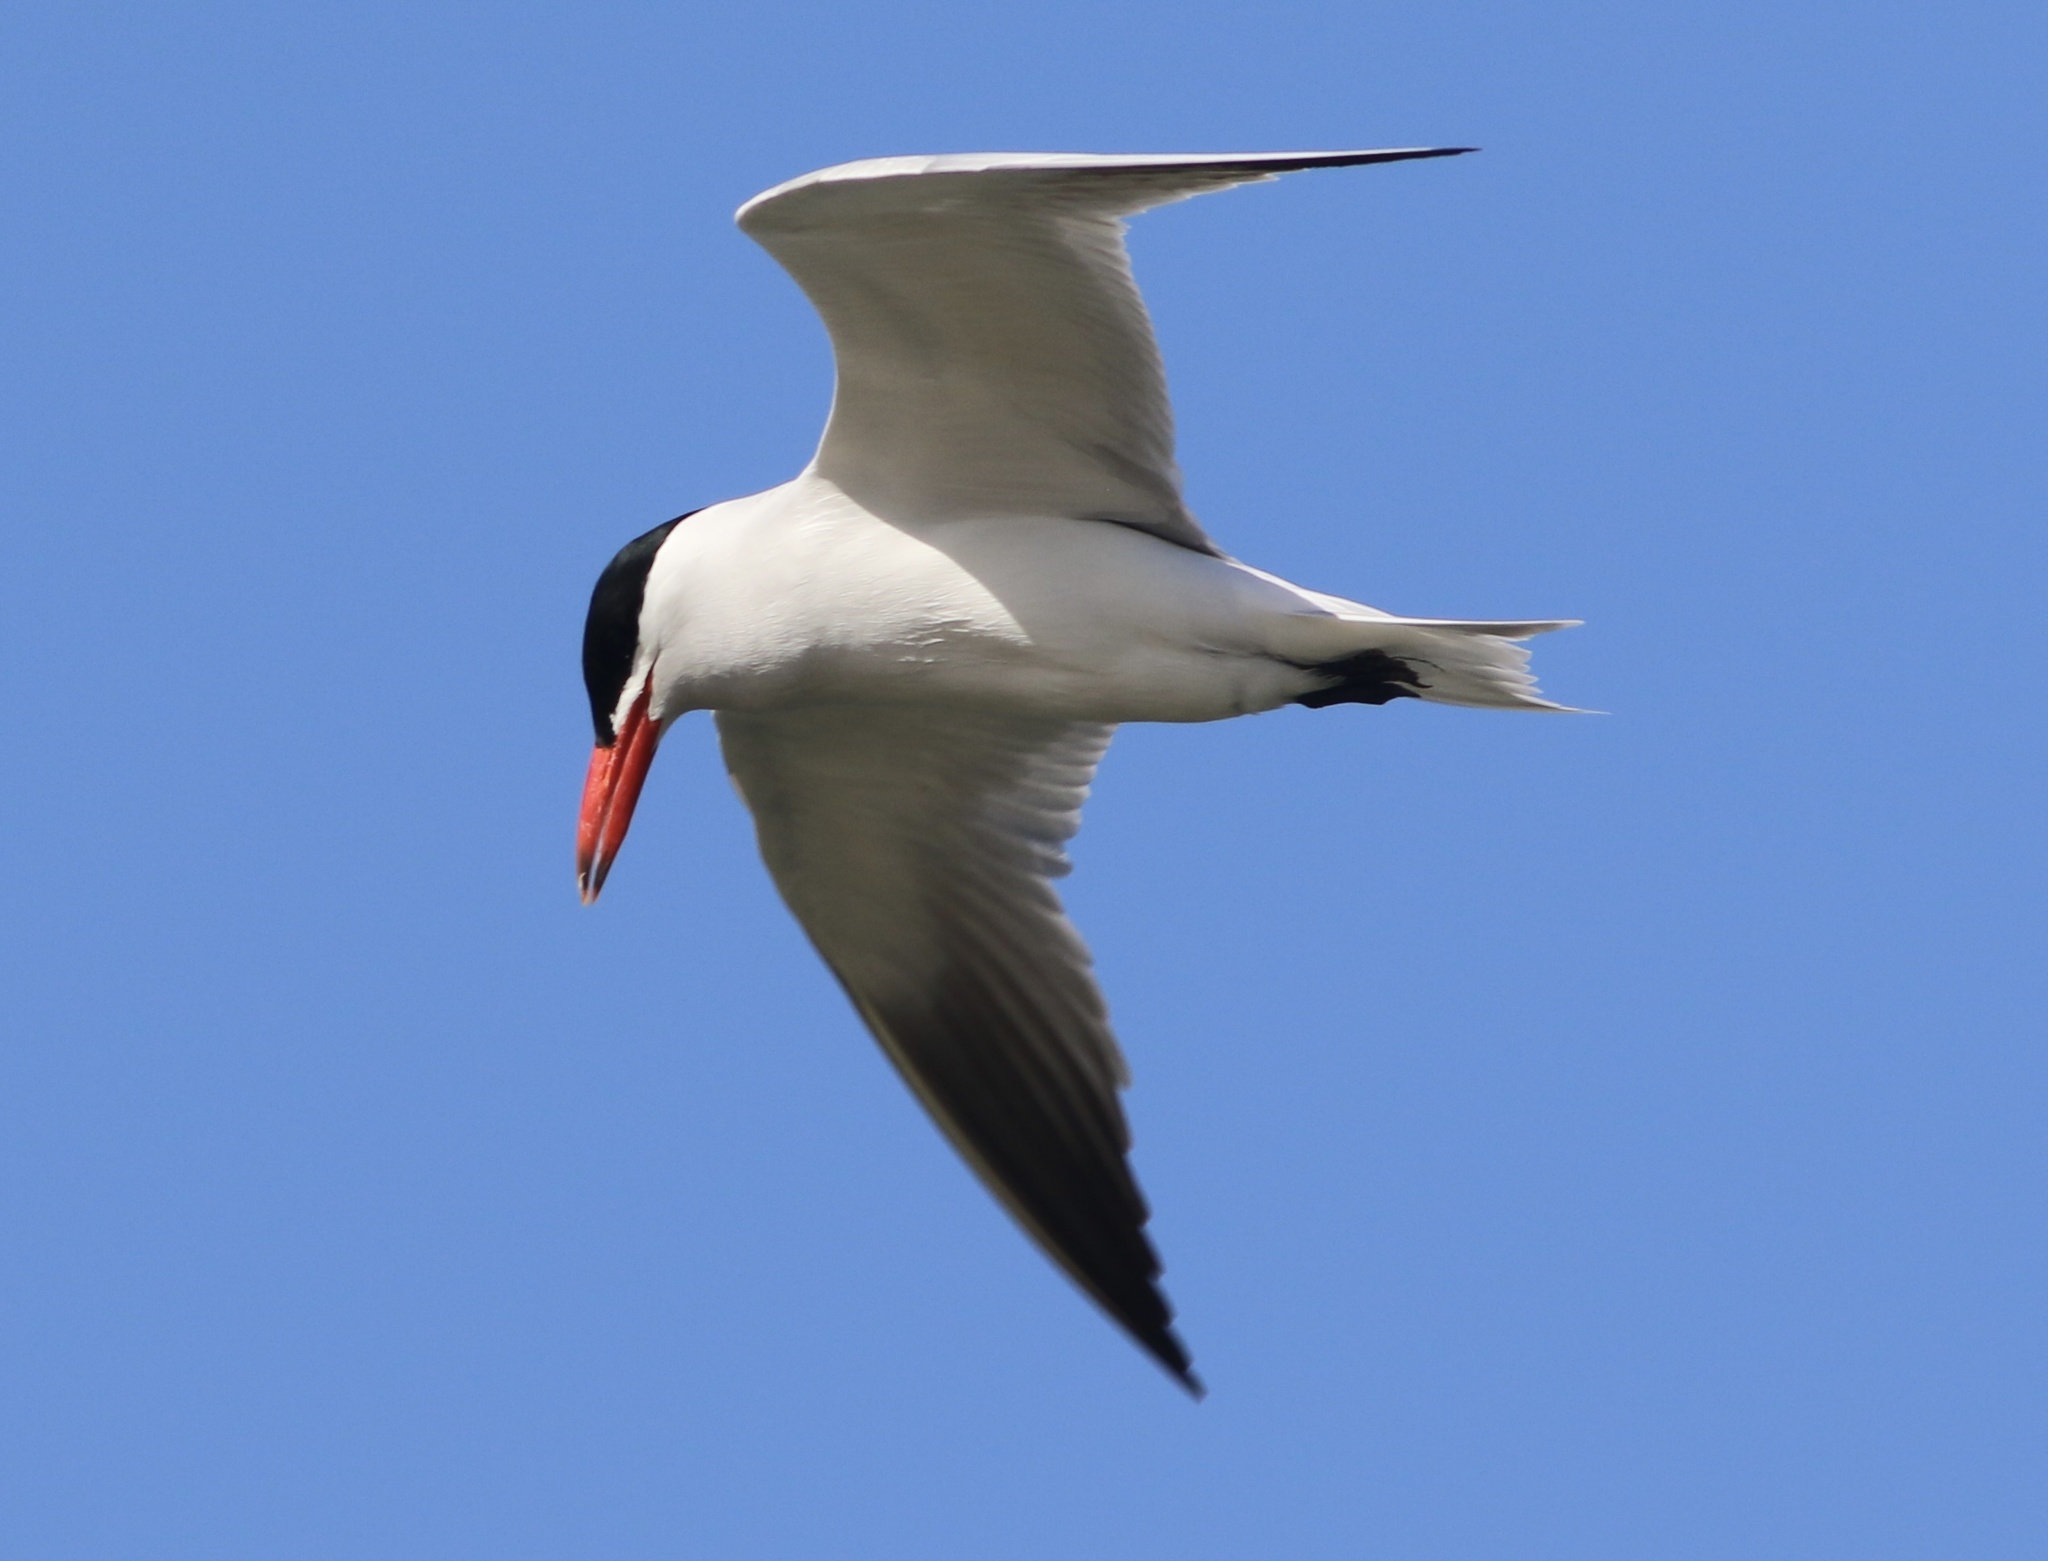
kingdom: Animalia
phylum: Chordata
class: Aves
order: Charadriiformes
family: Laridae
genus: Hydroprogne
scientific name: Hydroprogne caspia
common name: Caspian tern
